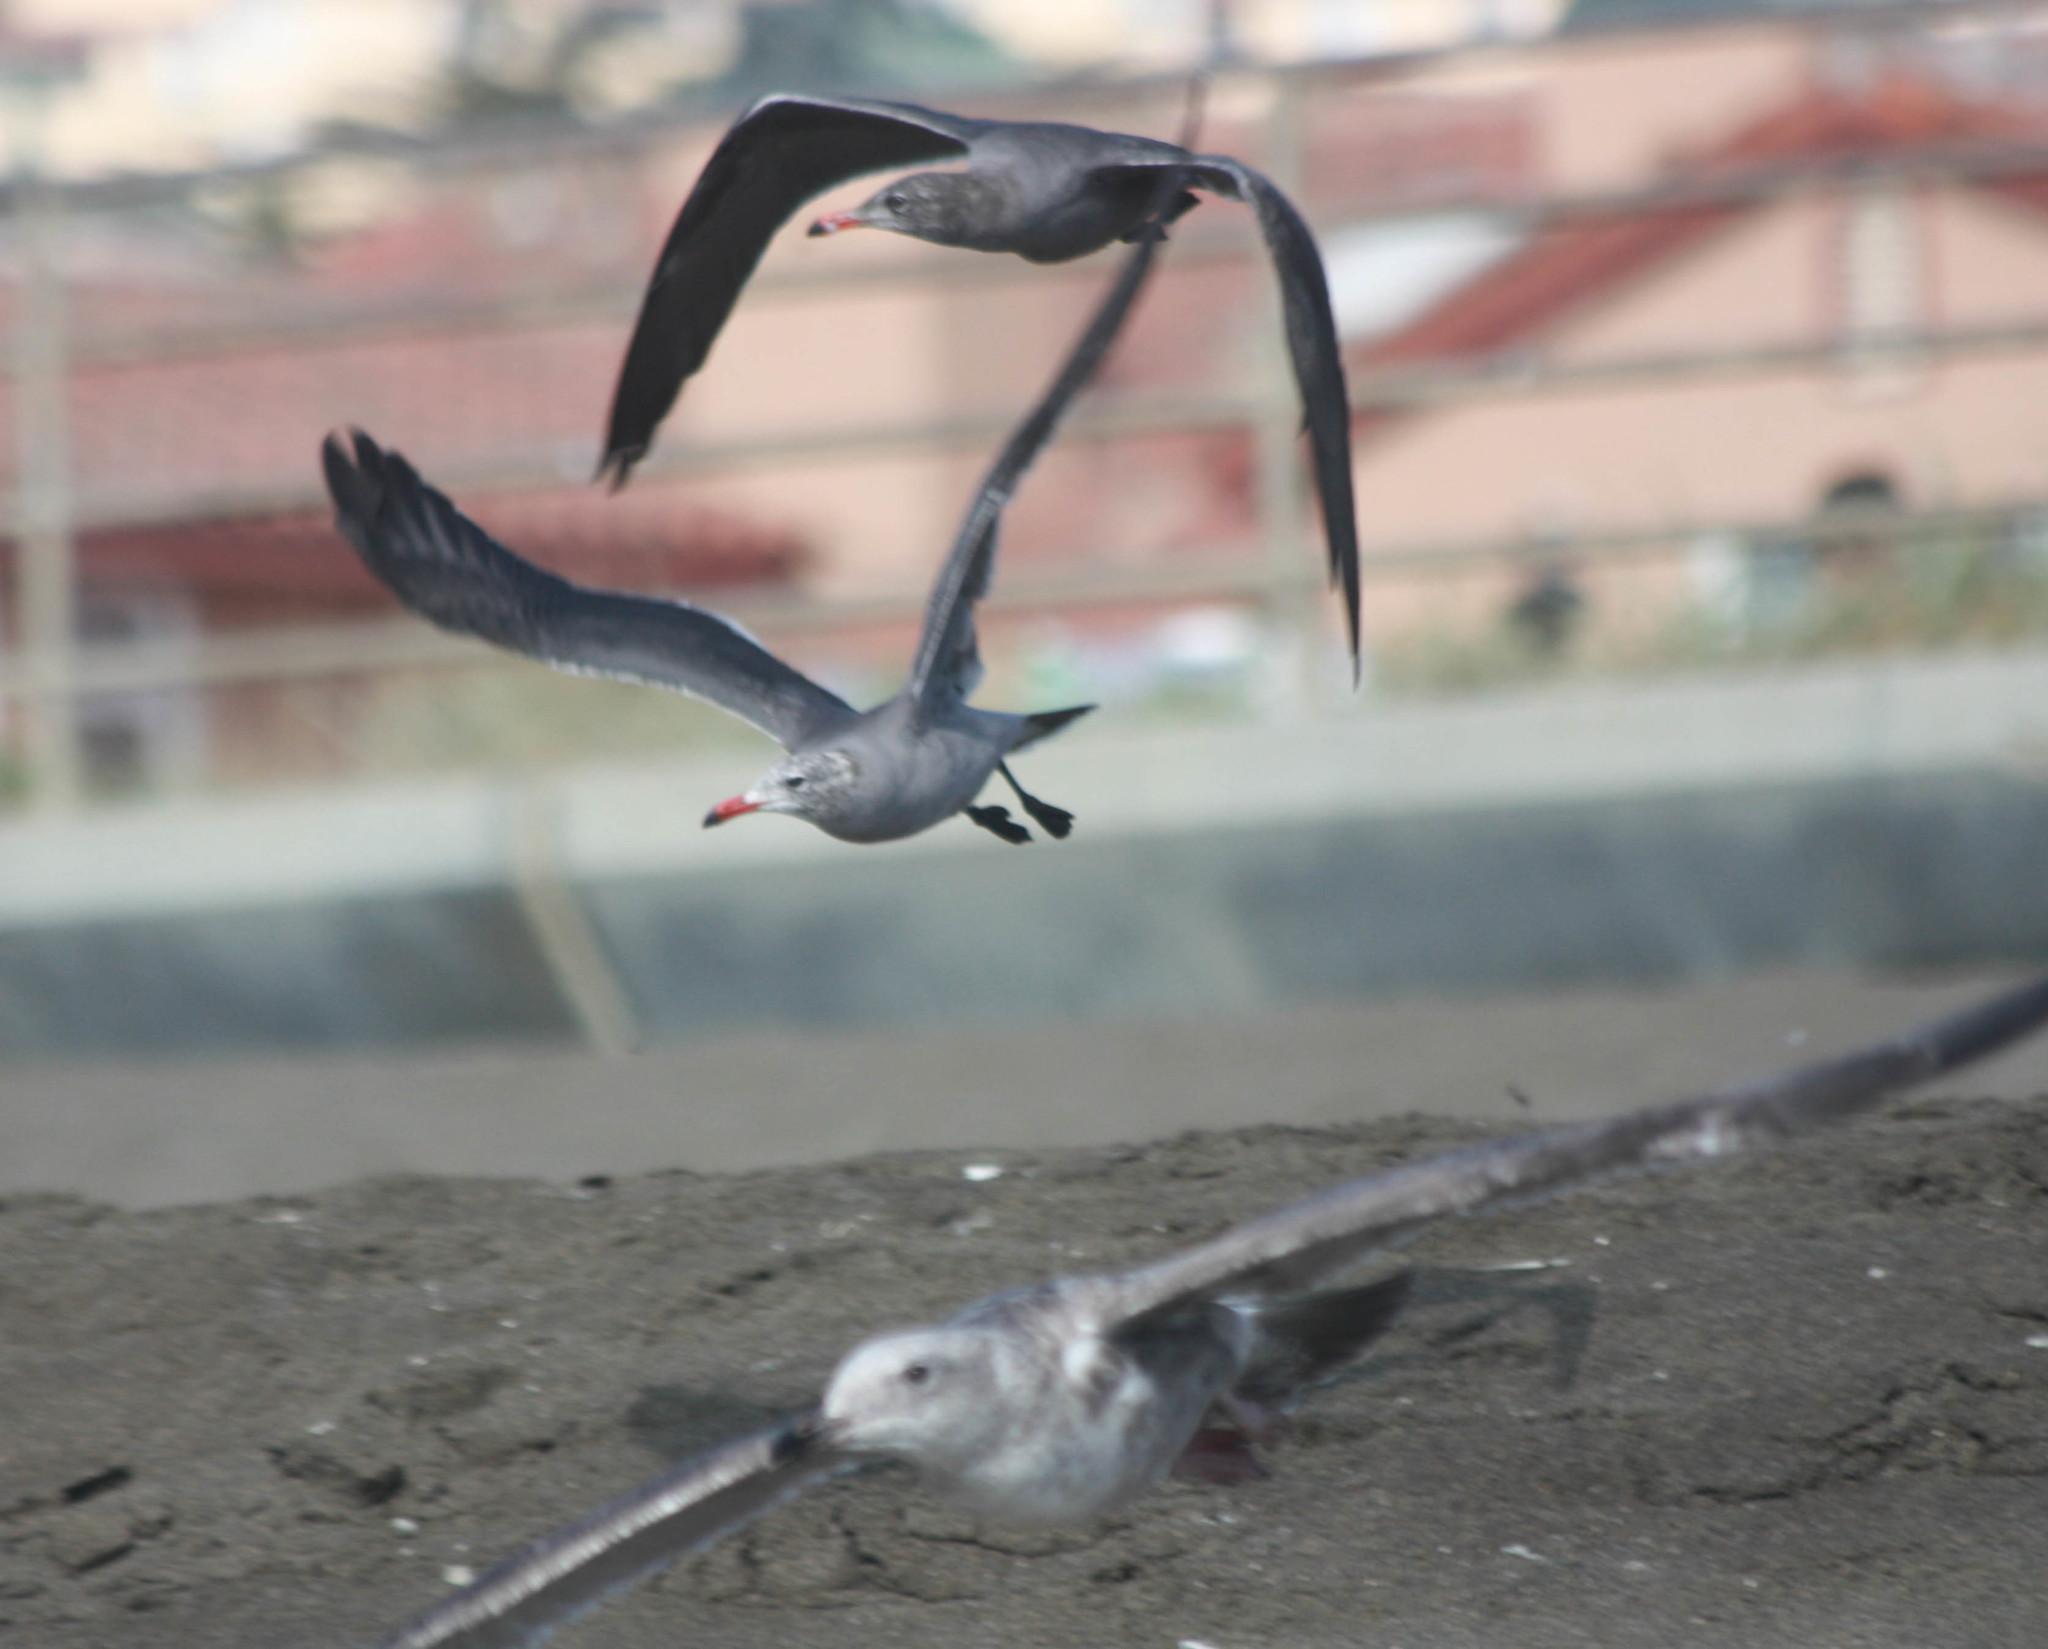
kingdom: Animalia
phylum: Chordata
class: Aves
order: Charadriiformes
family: Laridae
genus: Larus
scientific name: Larus heermanni
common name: Heermann's gull
